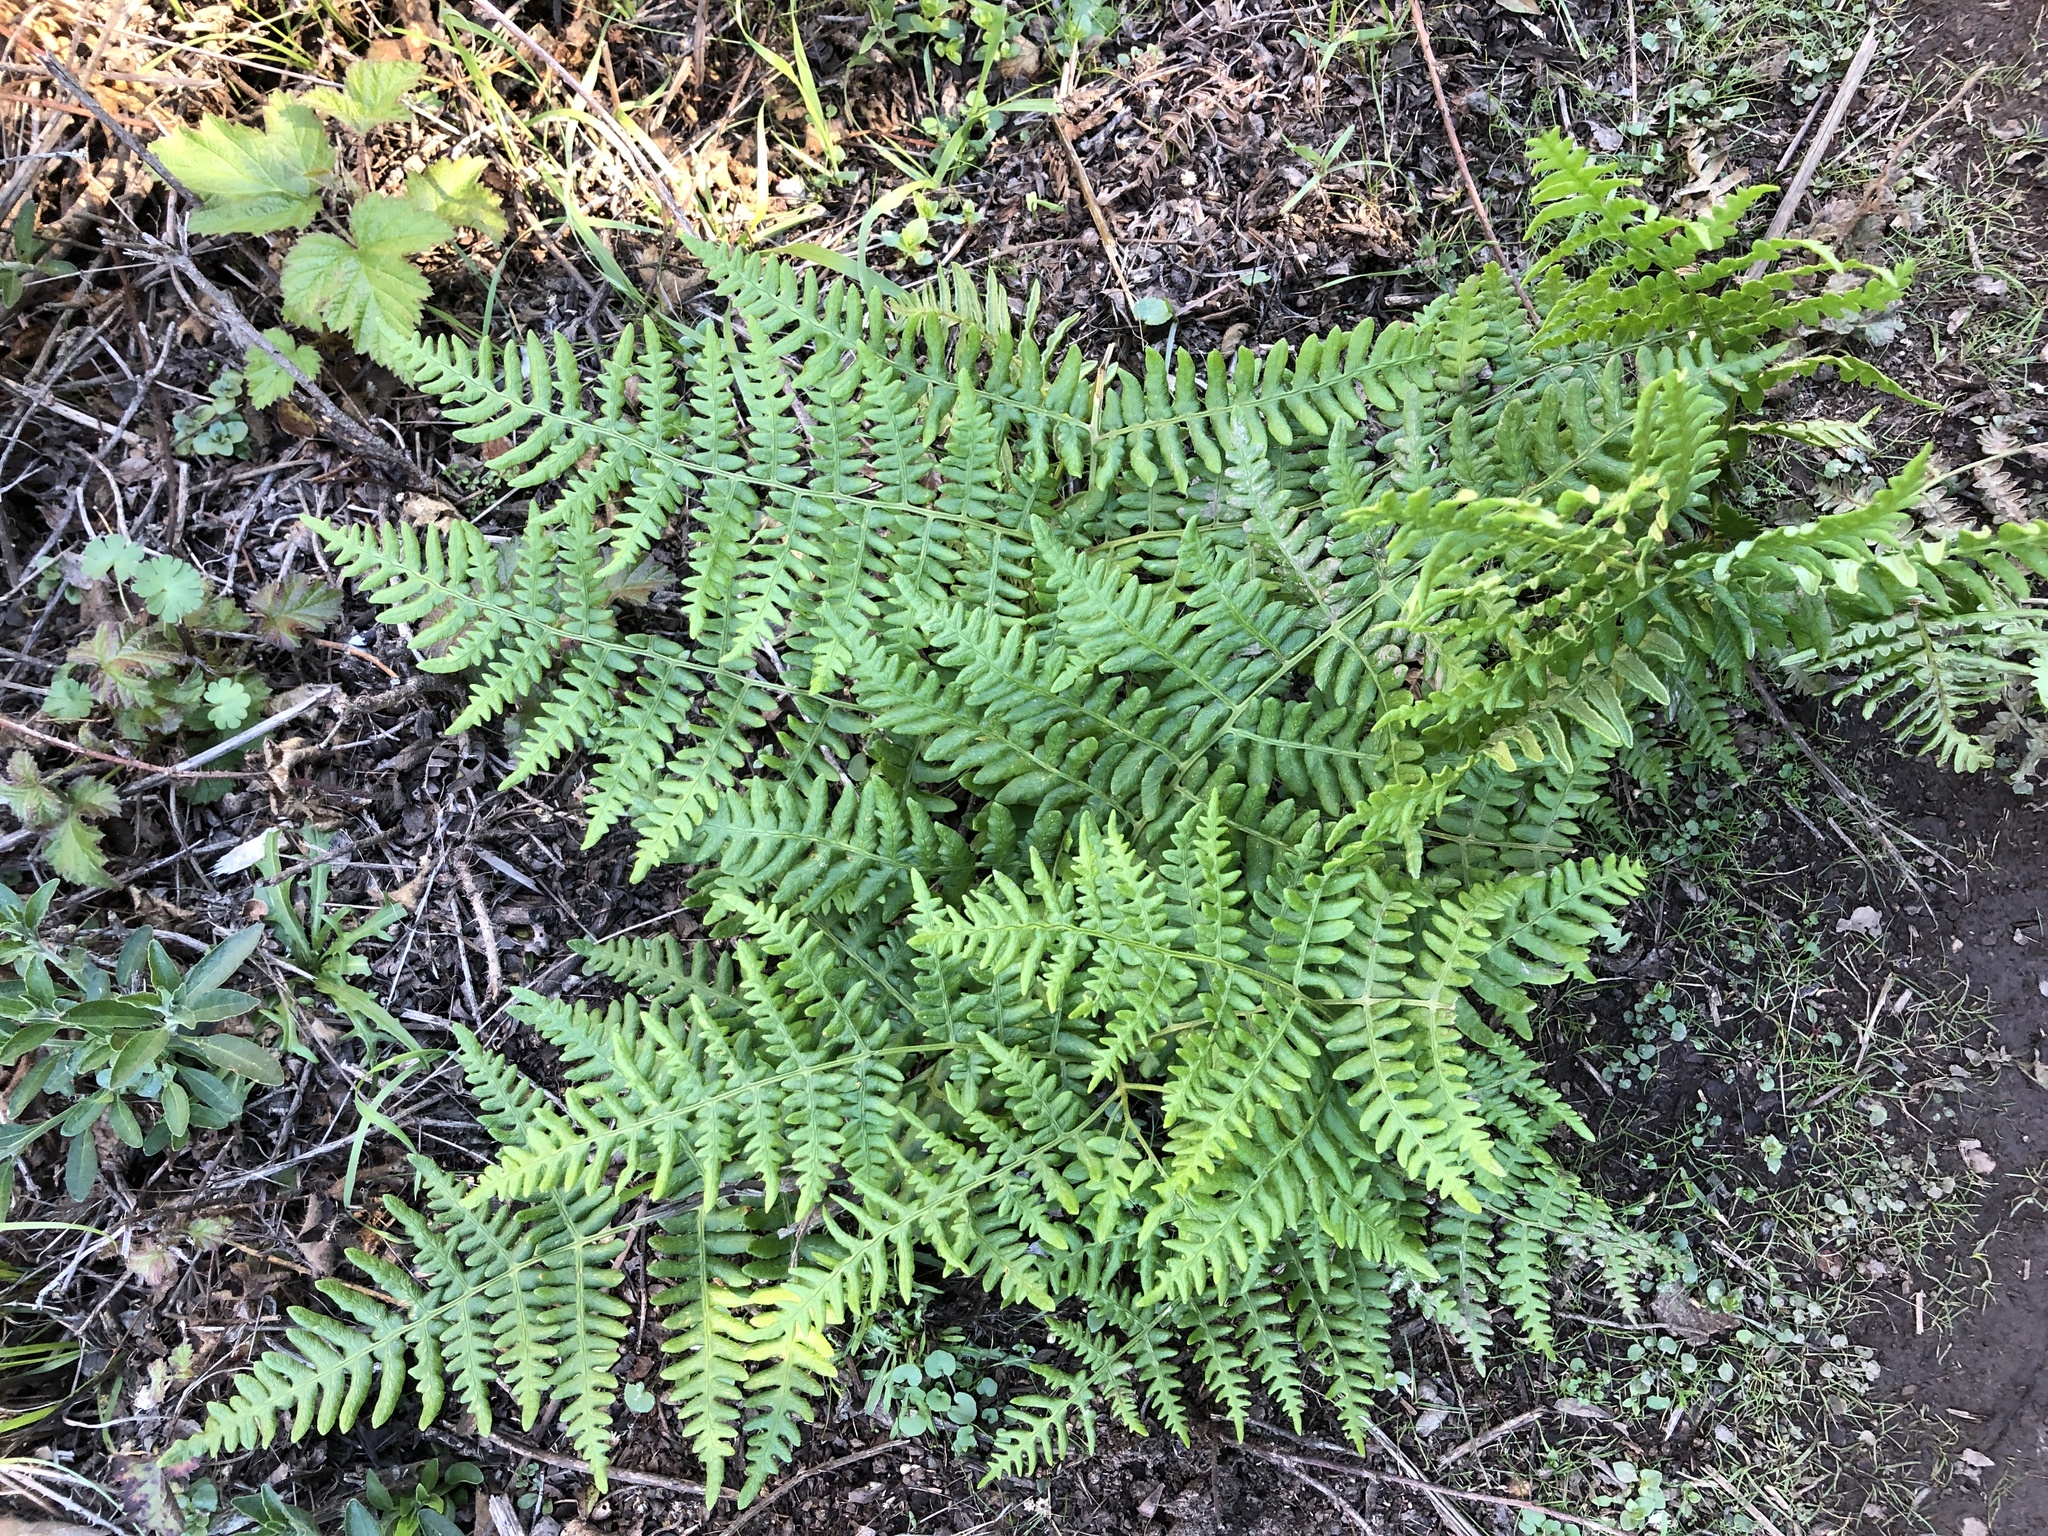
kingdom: Plantae
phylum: Tracheophyta
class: Polypodiopsida
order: Polypodiales
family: Dennstaedtiaceae
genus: Pteridium
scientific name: Pteridium aquilinum
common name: Bracken
